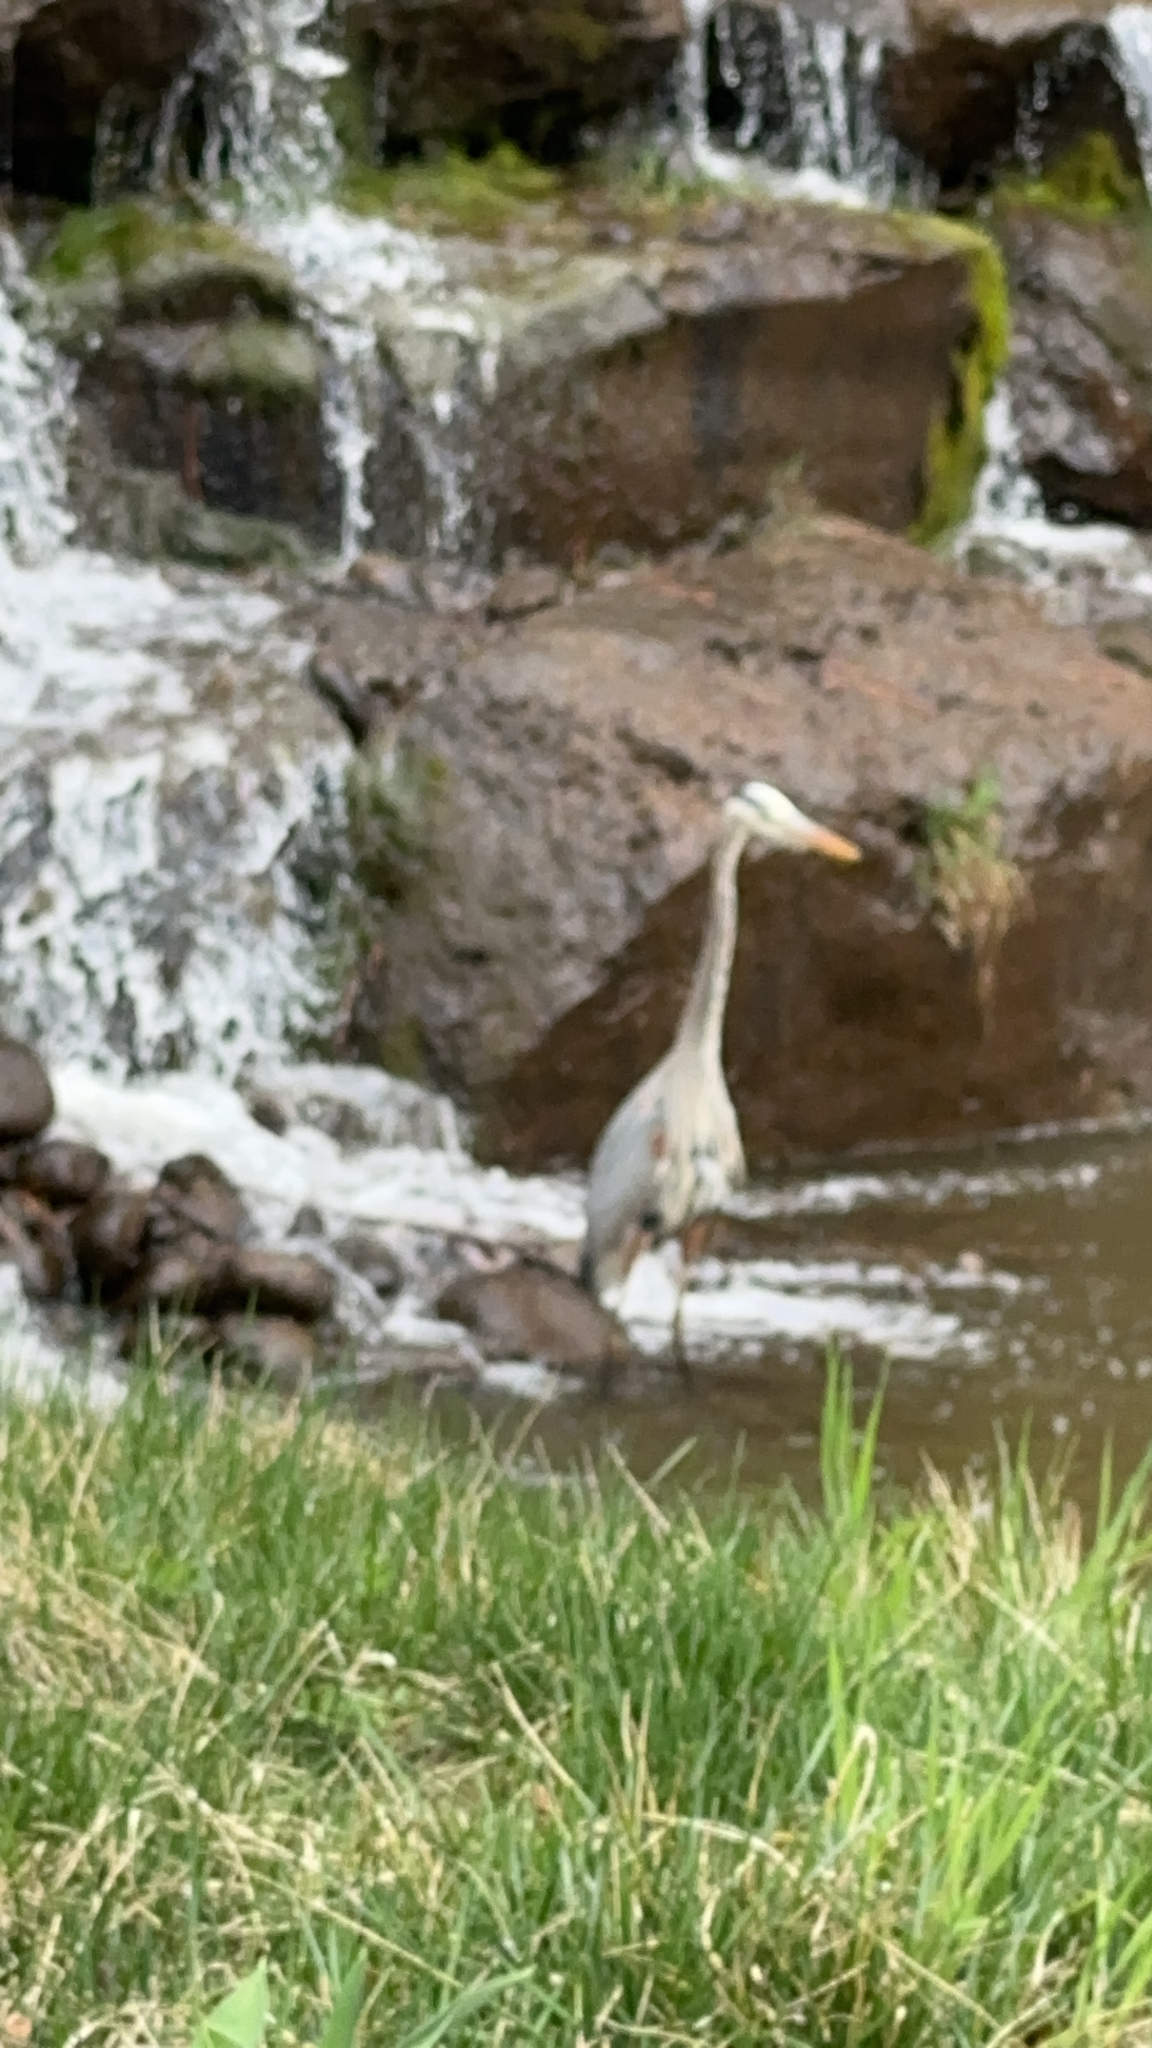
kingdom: Animalia
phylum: Chordata
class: Aves
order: Pelecaniformes
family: Ardeidae
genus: Ardea
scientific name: Ardea herodias
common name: Great blue heron
